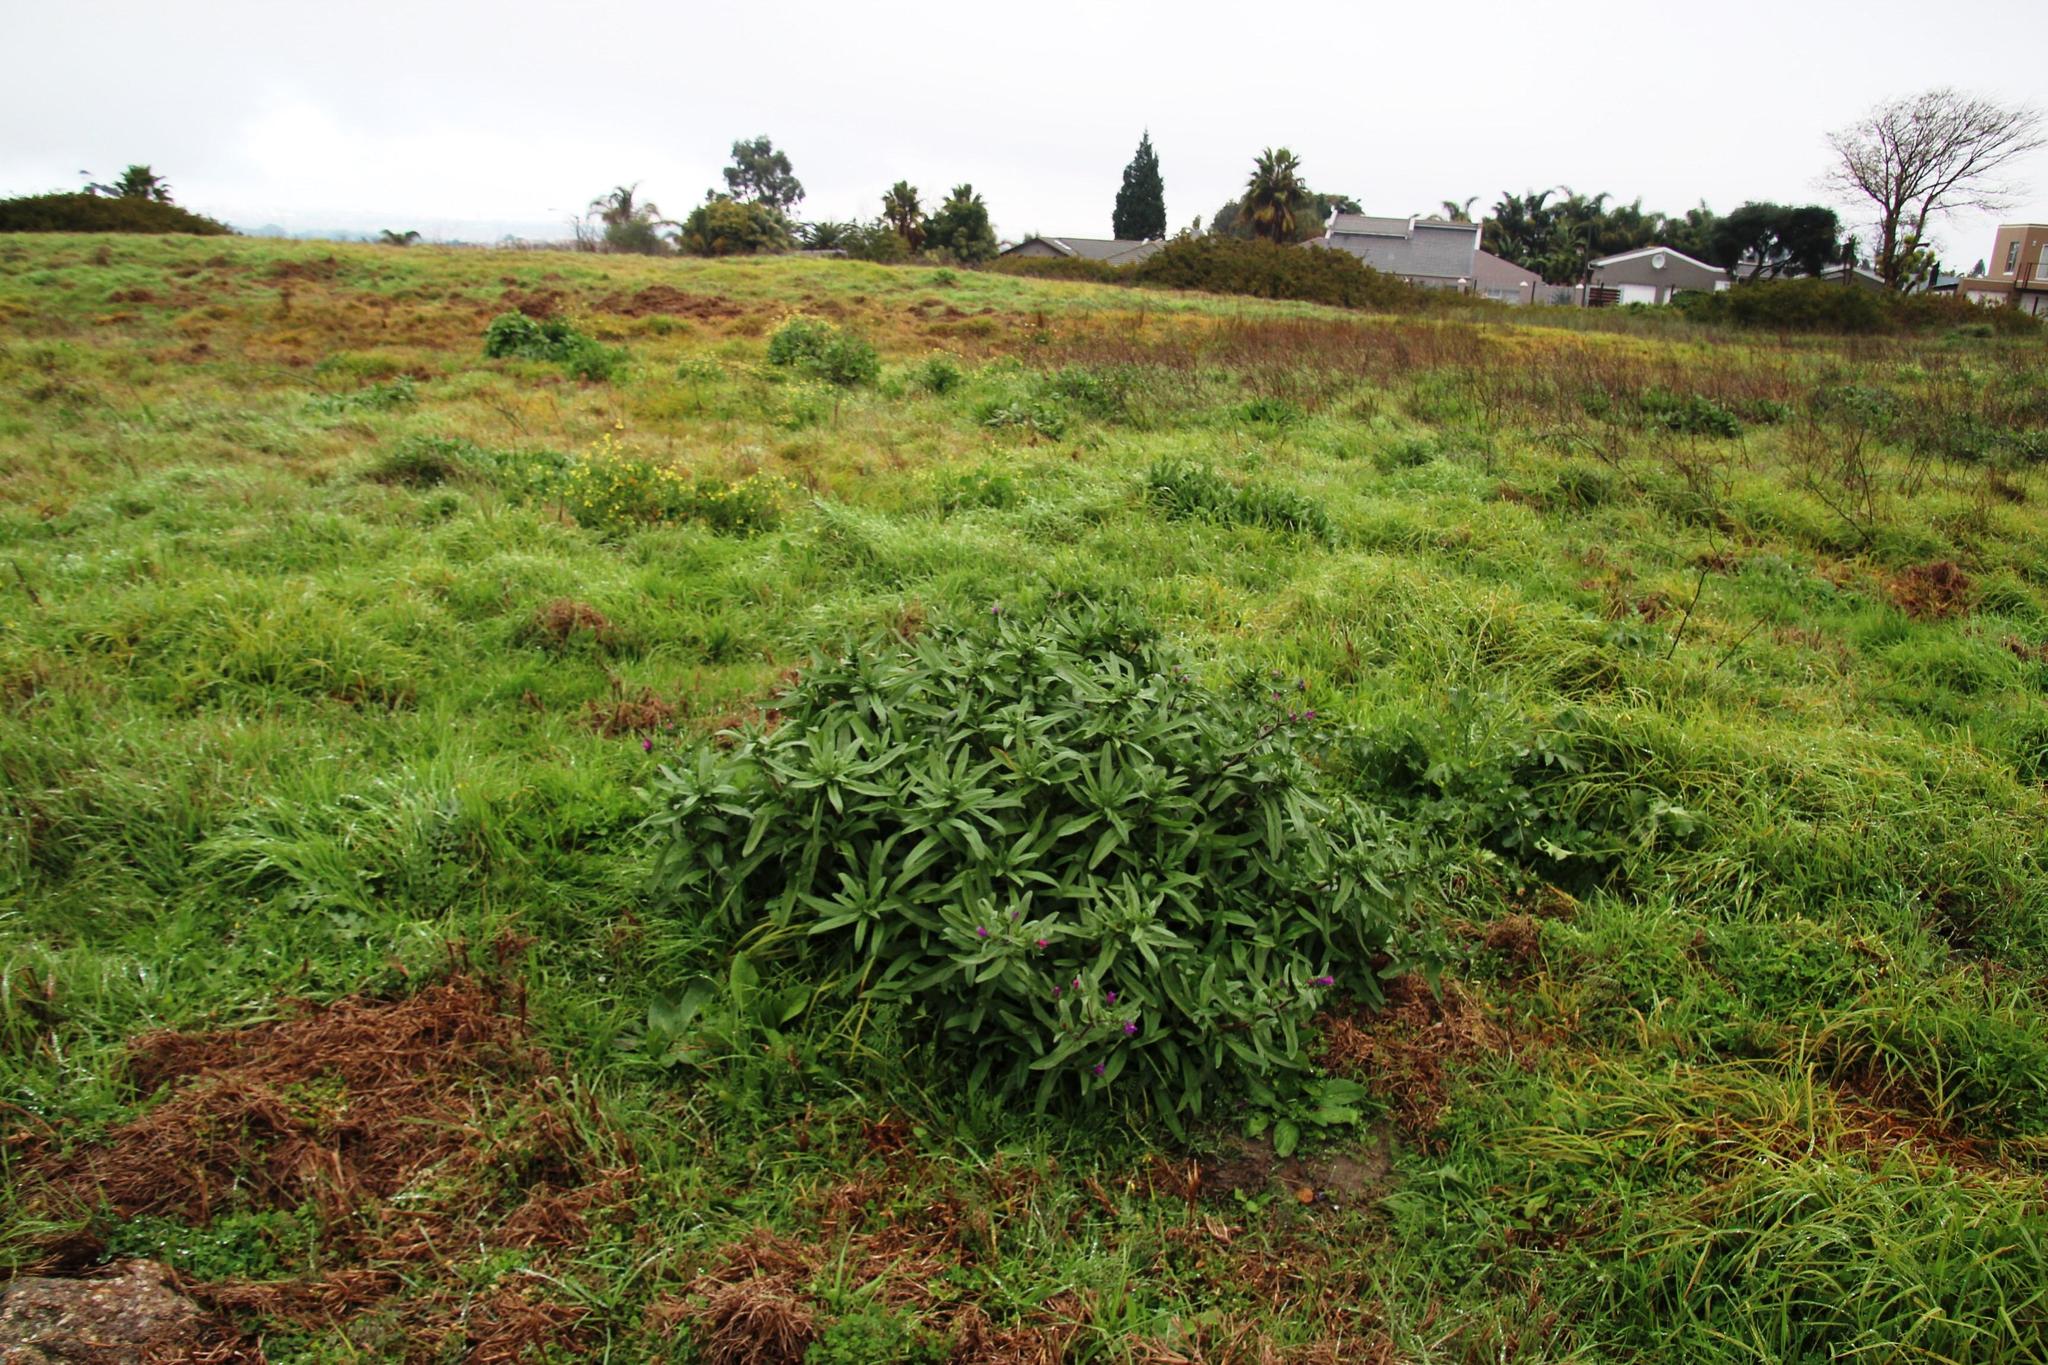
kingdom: Plantae
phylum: Tracheophyta
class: Liliopsida
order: Poales
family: Poaceae
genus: Cenchrus
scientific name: Cenchrus clandestinus
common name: Kikuyugrass
